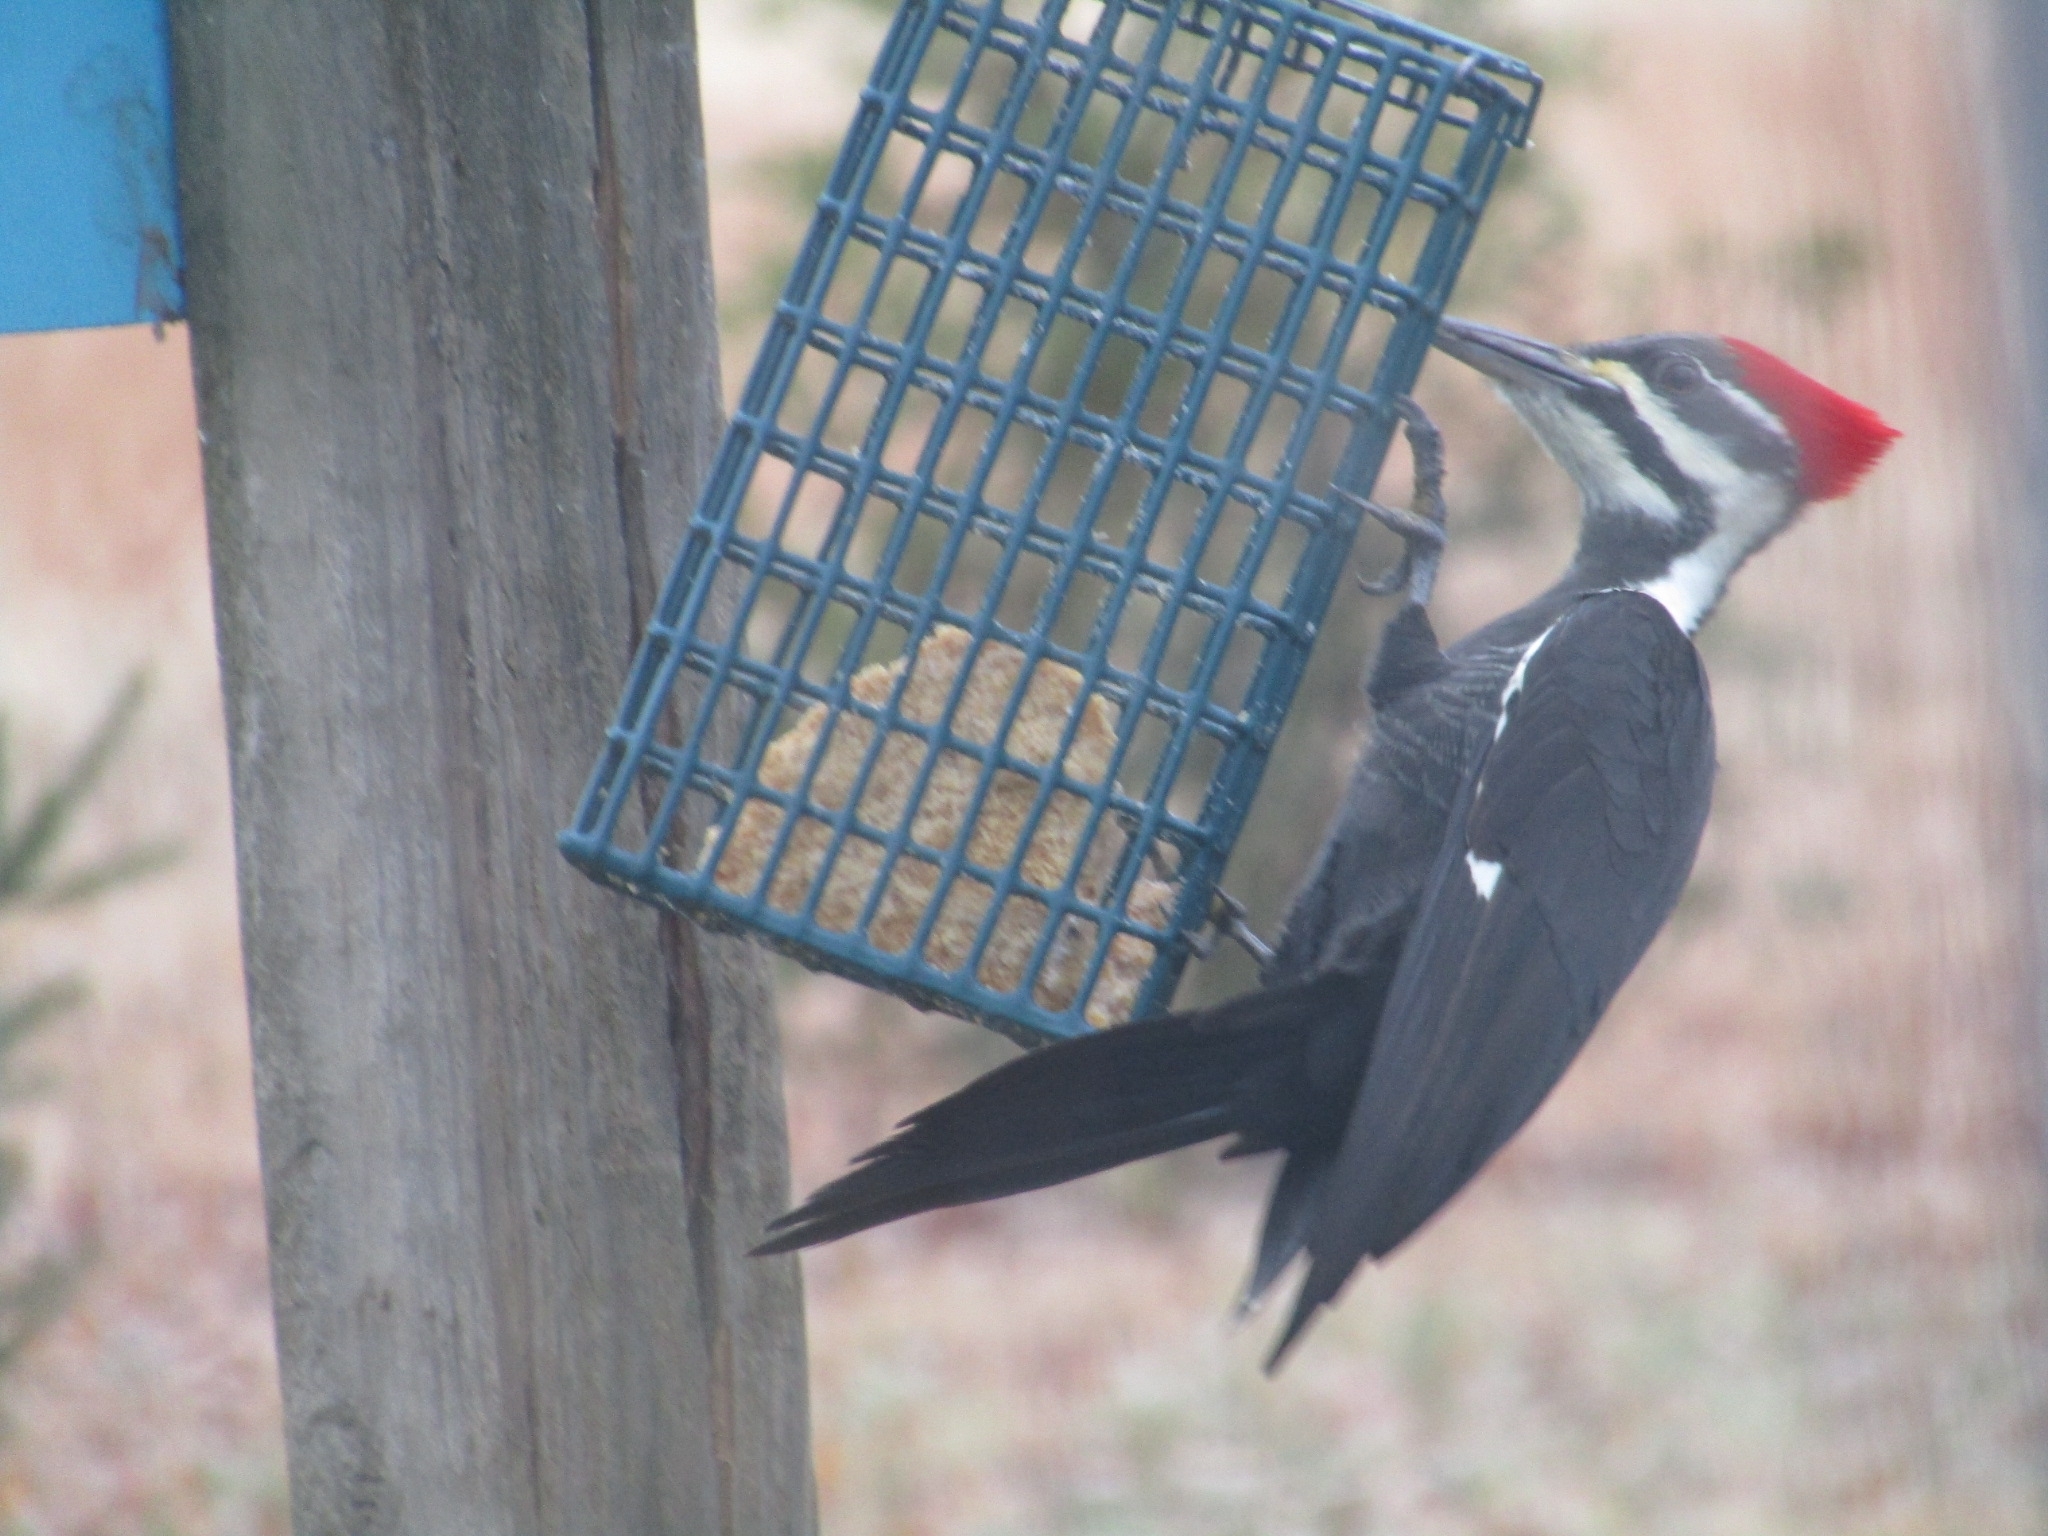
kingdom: Animalia
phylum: Chordata
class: Aves
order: Piciformes
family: Picidae
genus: Dryocopus
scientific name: Dryocopus pileatus
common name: Pileated woodpecker
